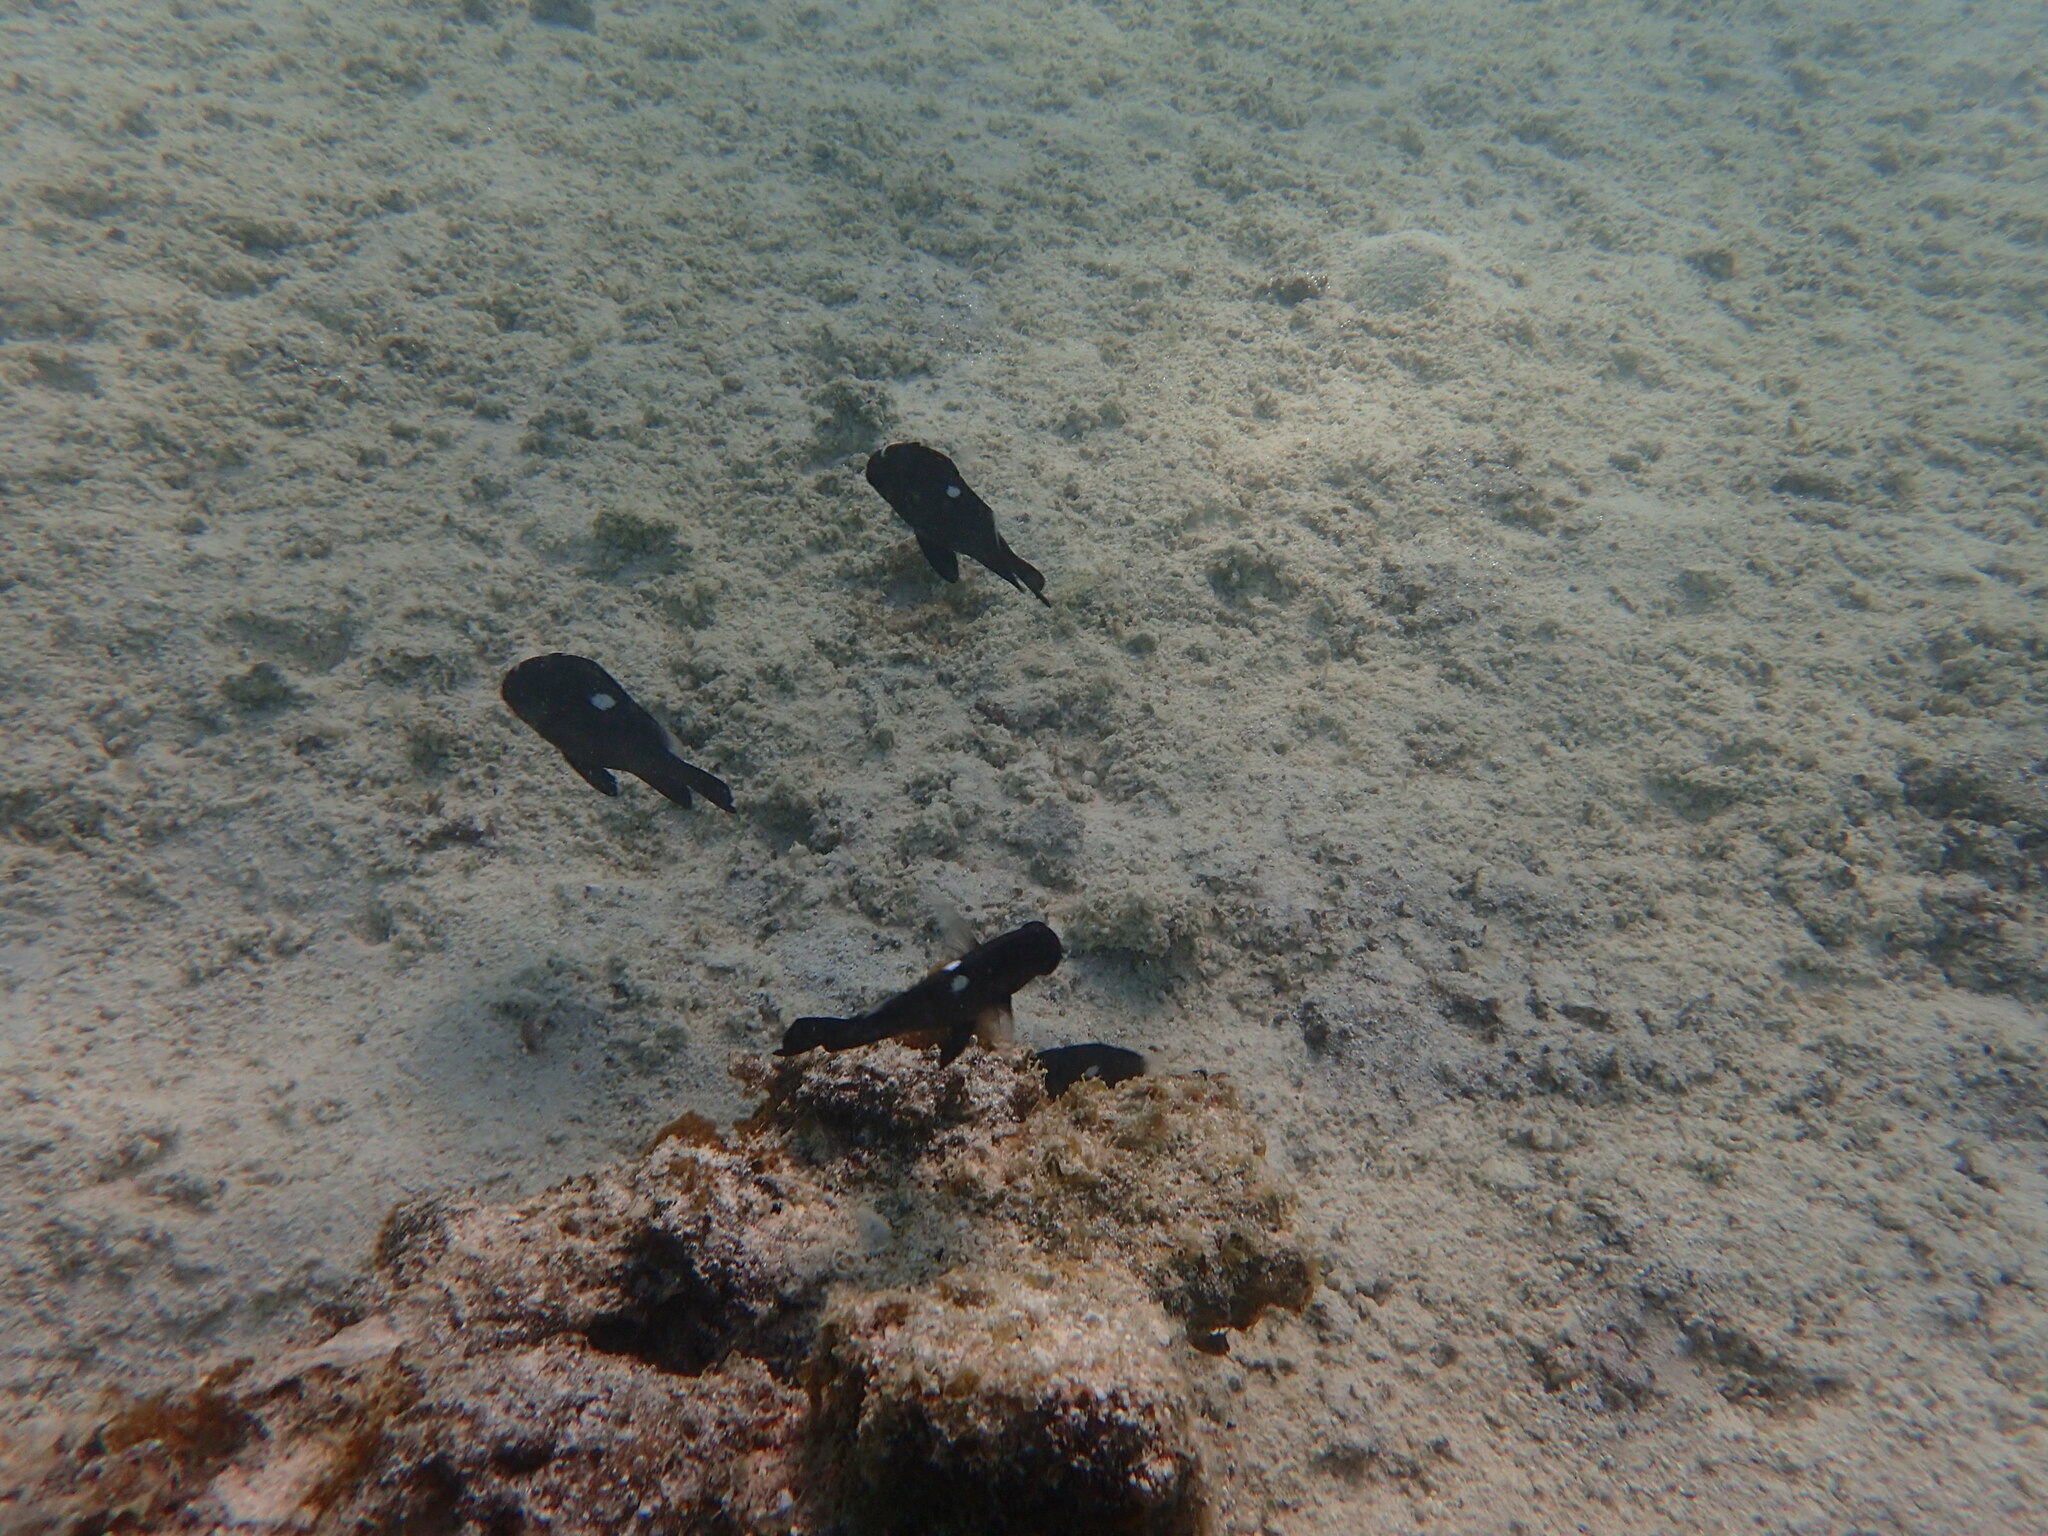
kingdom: Animalia
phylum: Chordata
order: Perciformes
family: Pomacentridae
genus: Dascyllus
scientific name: Dascyllus trimaculatus
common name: Threespot dascyllus
